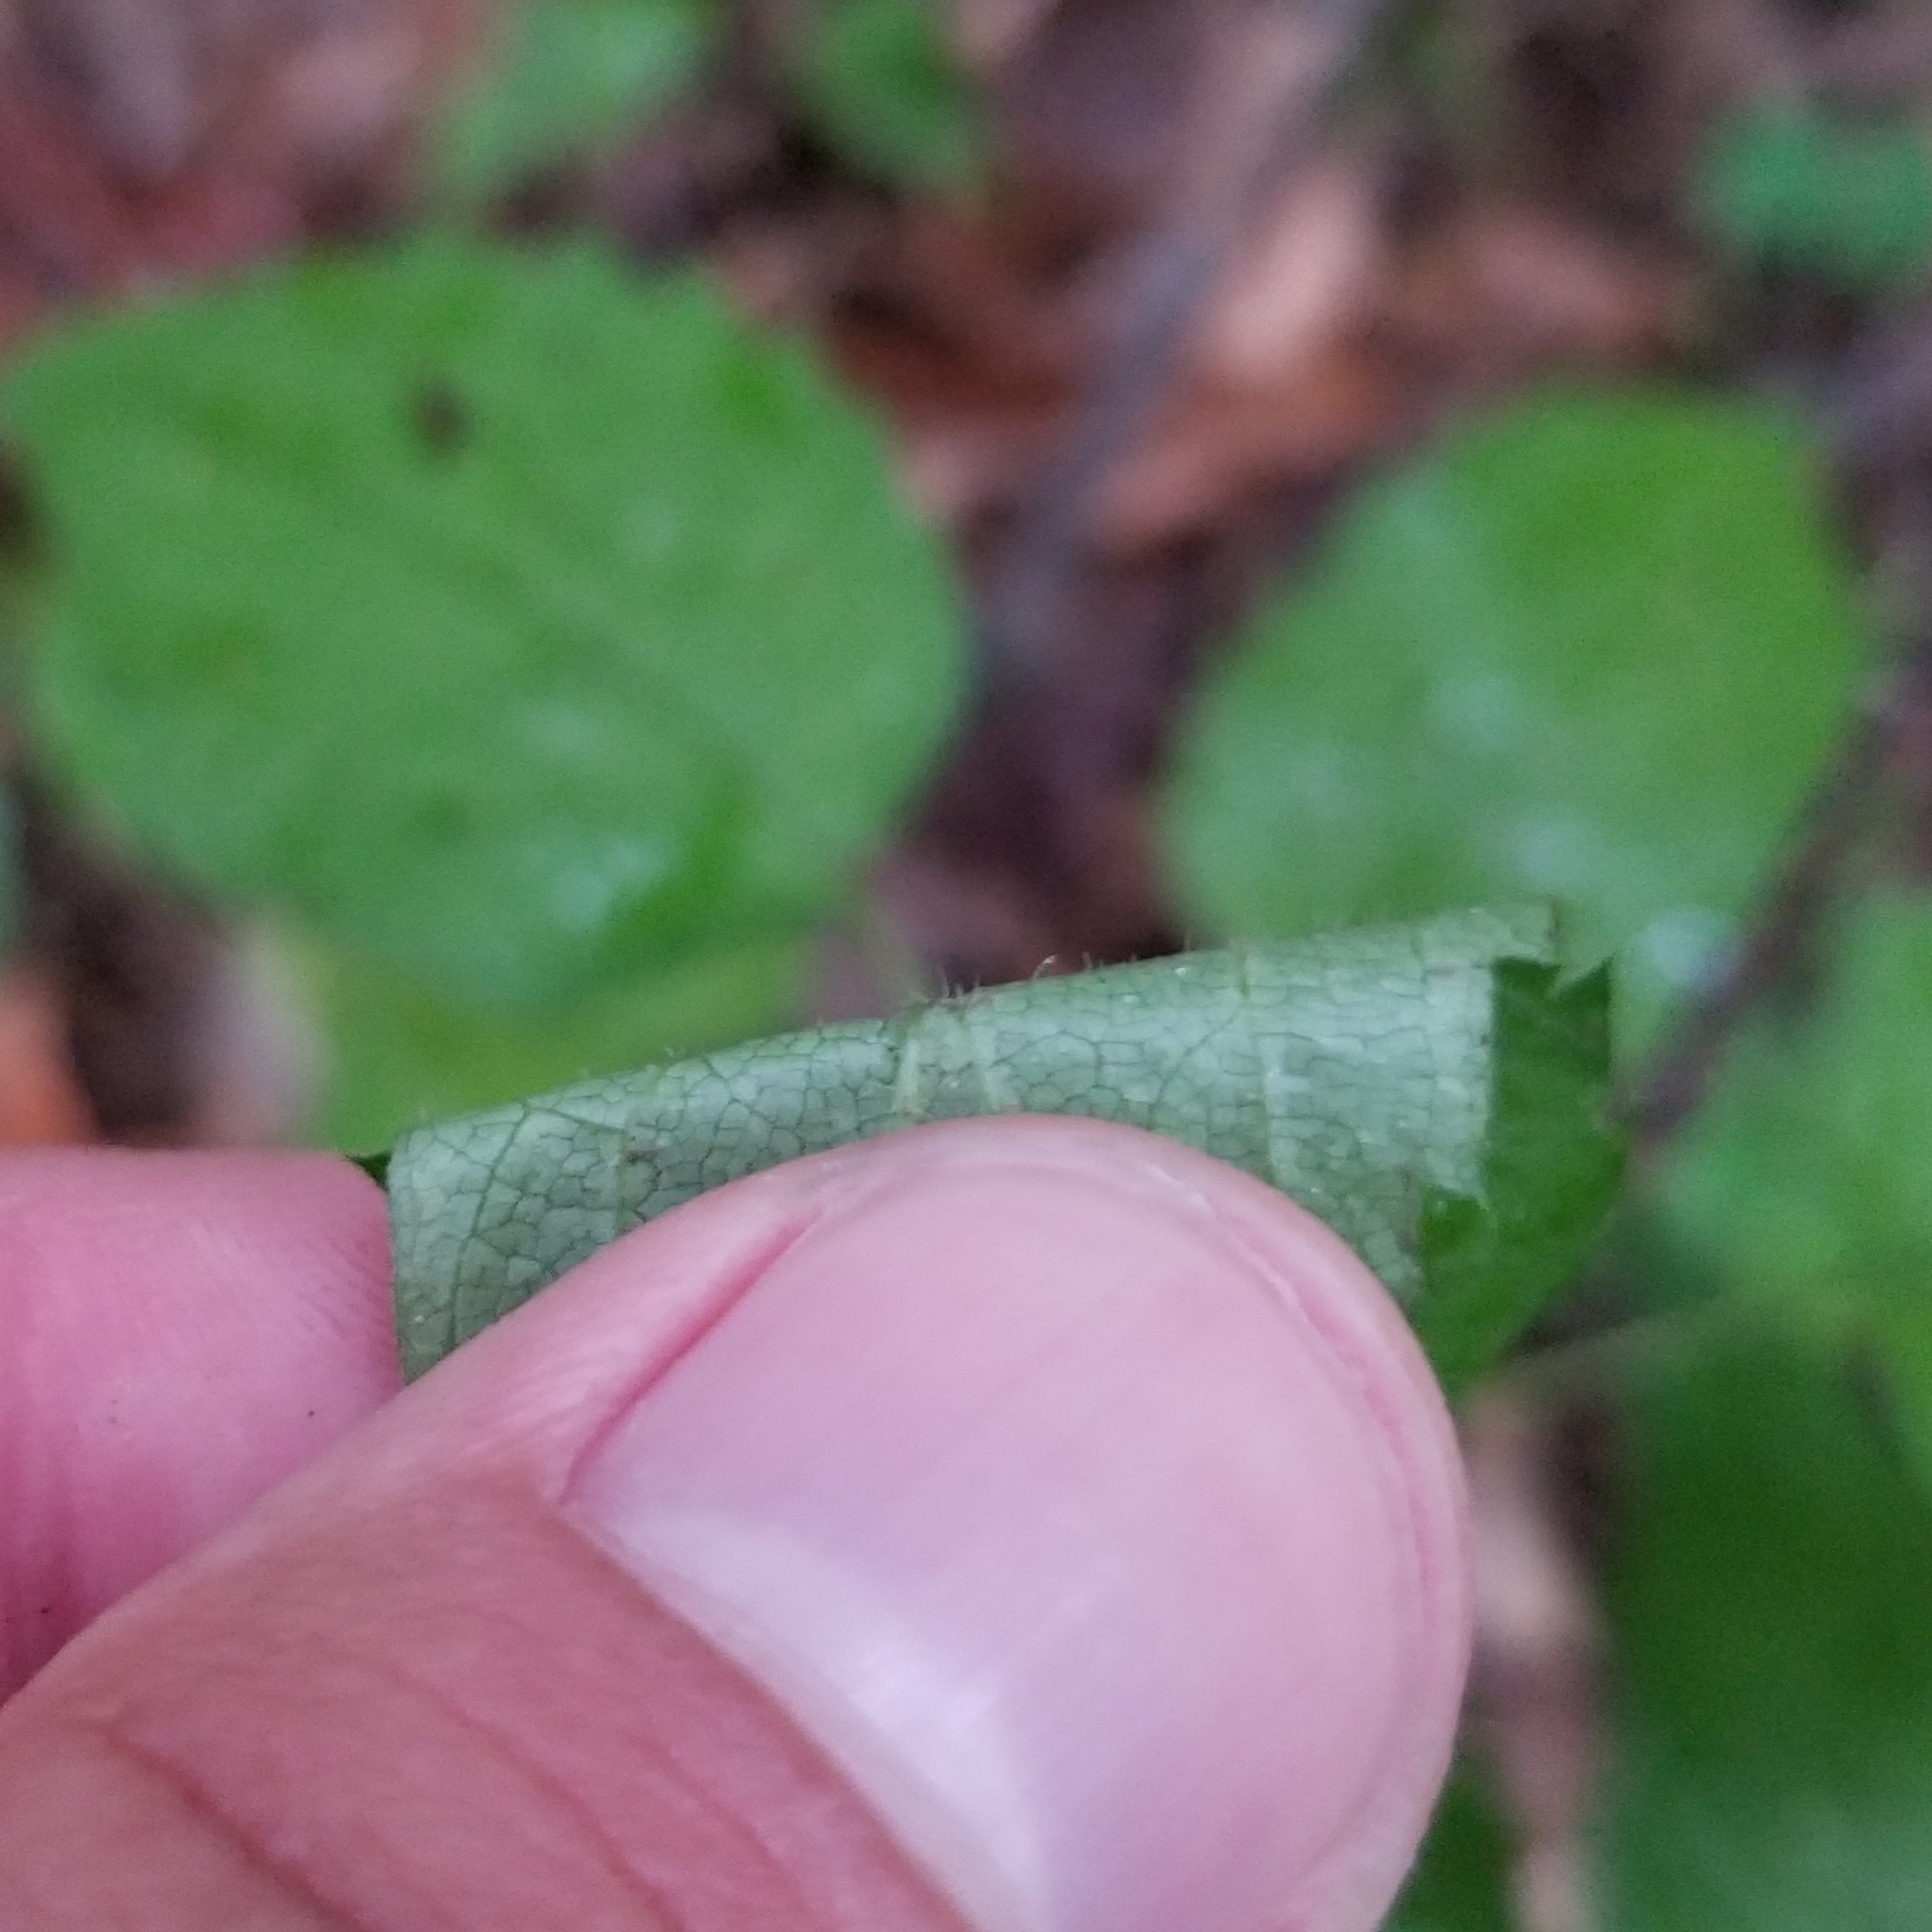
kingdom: Plantae
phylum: Tracheophyta
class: Magnoliopsida
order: Asterales
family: Asteraceae
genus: Eurybia
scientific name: Eurybia divaricata
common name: White wood aster
